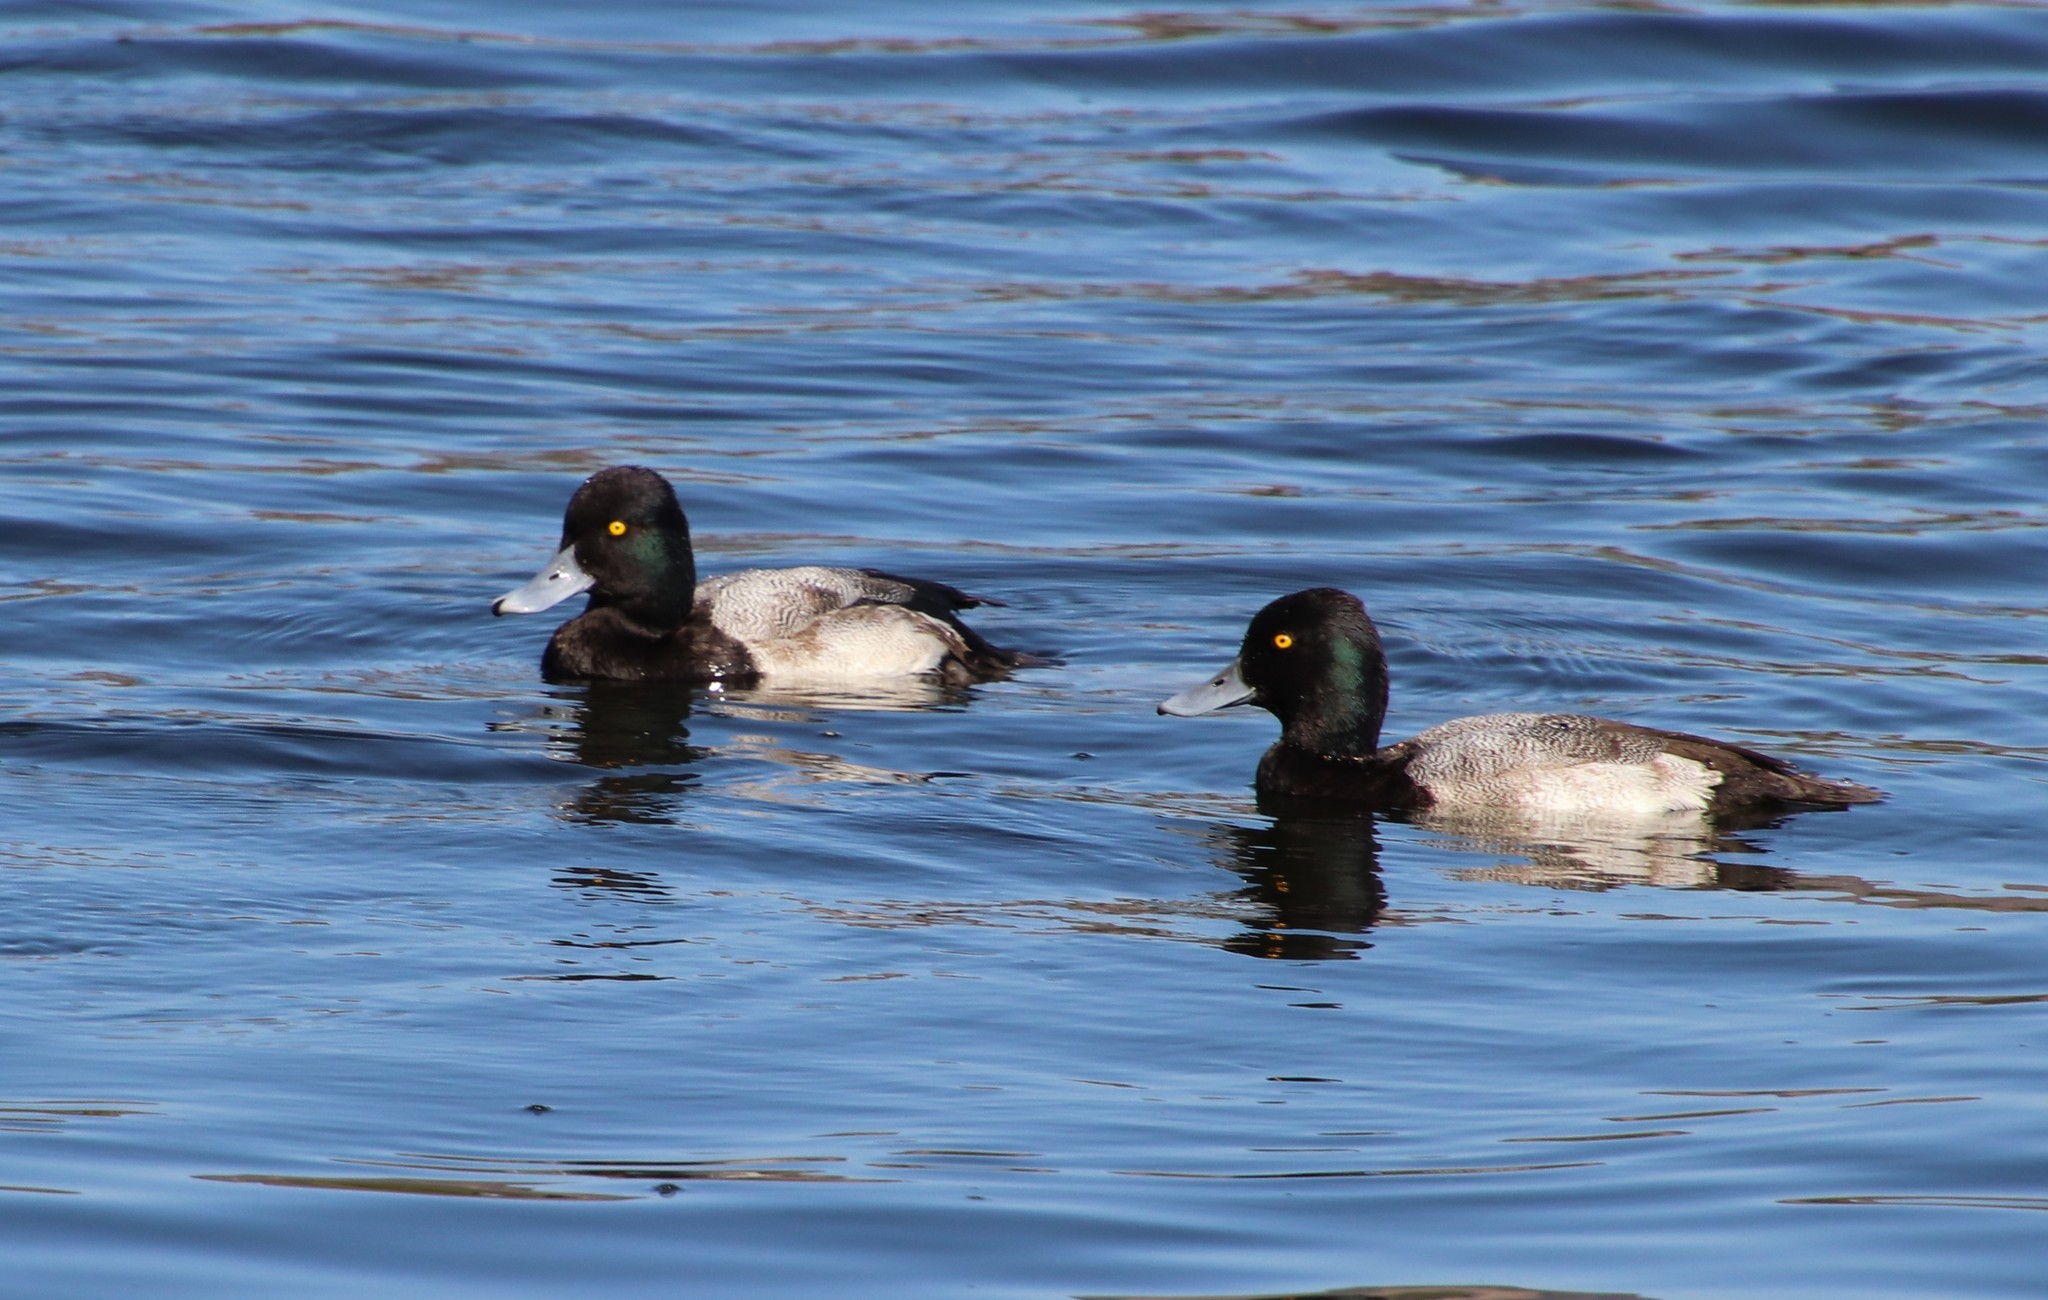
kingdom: Animalia
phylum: Chordata
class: Aves
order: Anseriformes
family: Anatidae
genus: Aythya
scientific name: Aythya affinis
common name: Lesser scaup
